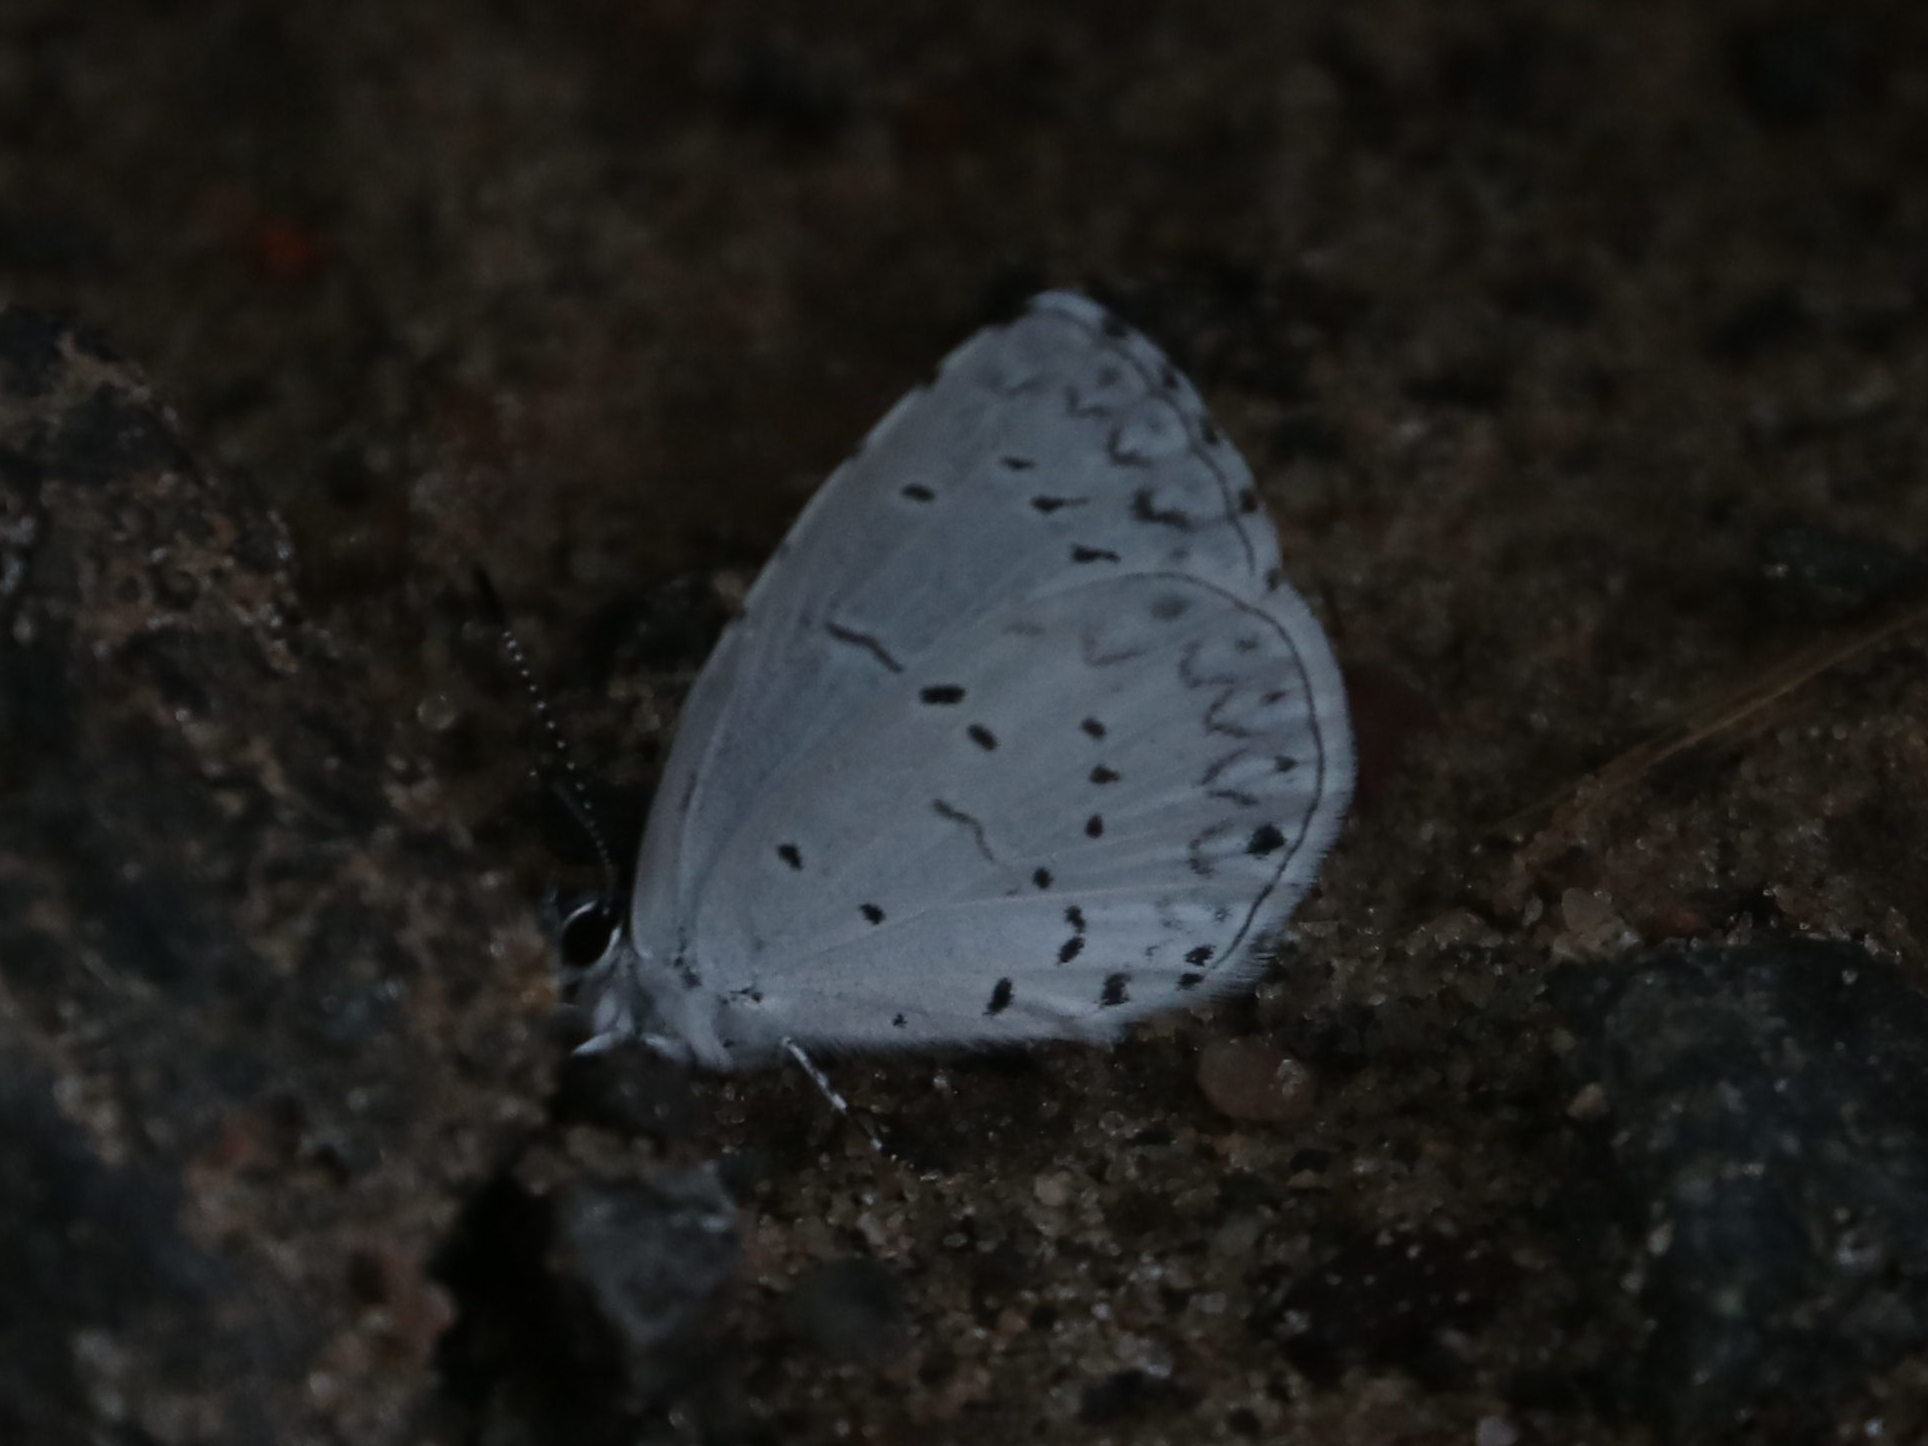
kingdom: Animalia
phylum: Arthropoda
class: Insecta
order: Lepidoptera
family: Lycaenidae
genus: Cyaniris
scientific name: Cyaniris neglecta
